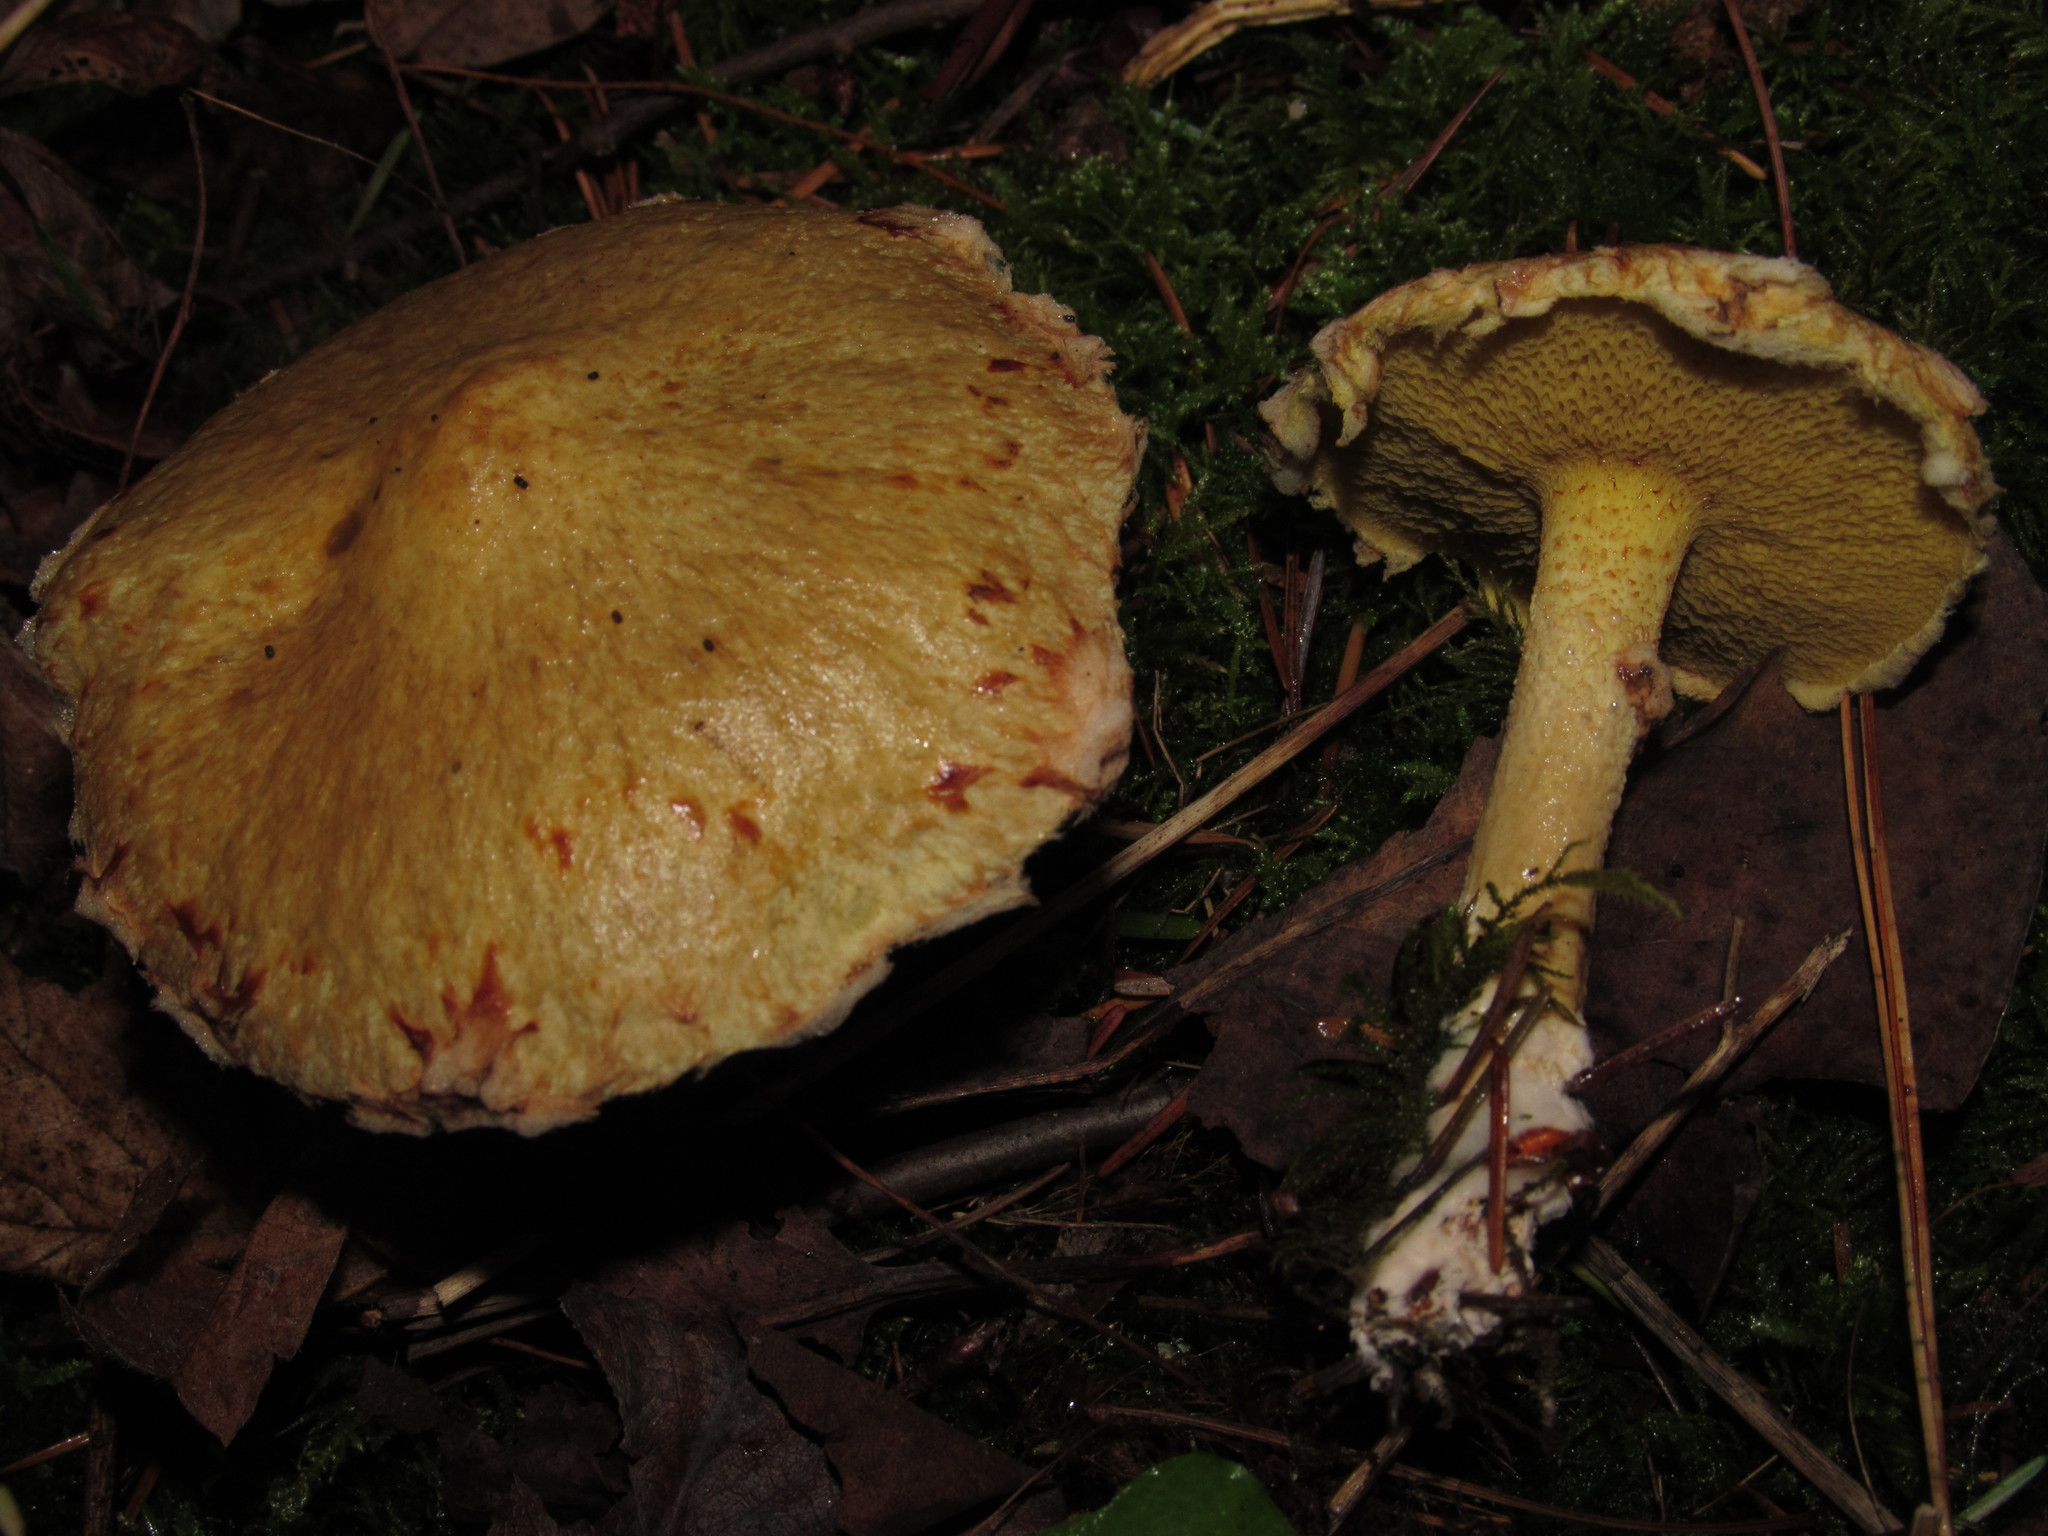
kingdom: Fungi
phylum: Basidiomycota
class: Agaricomycetes
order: Boletales
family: Suillaceae
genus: Suillus
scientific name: Suillus americanus
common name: Chicken fat mushroom
